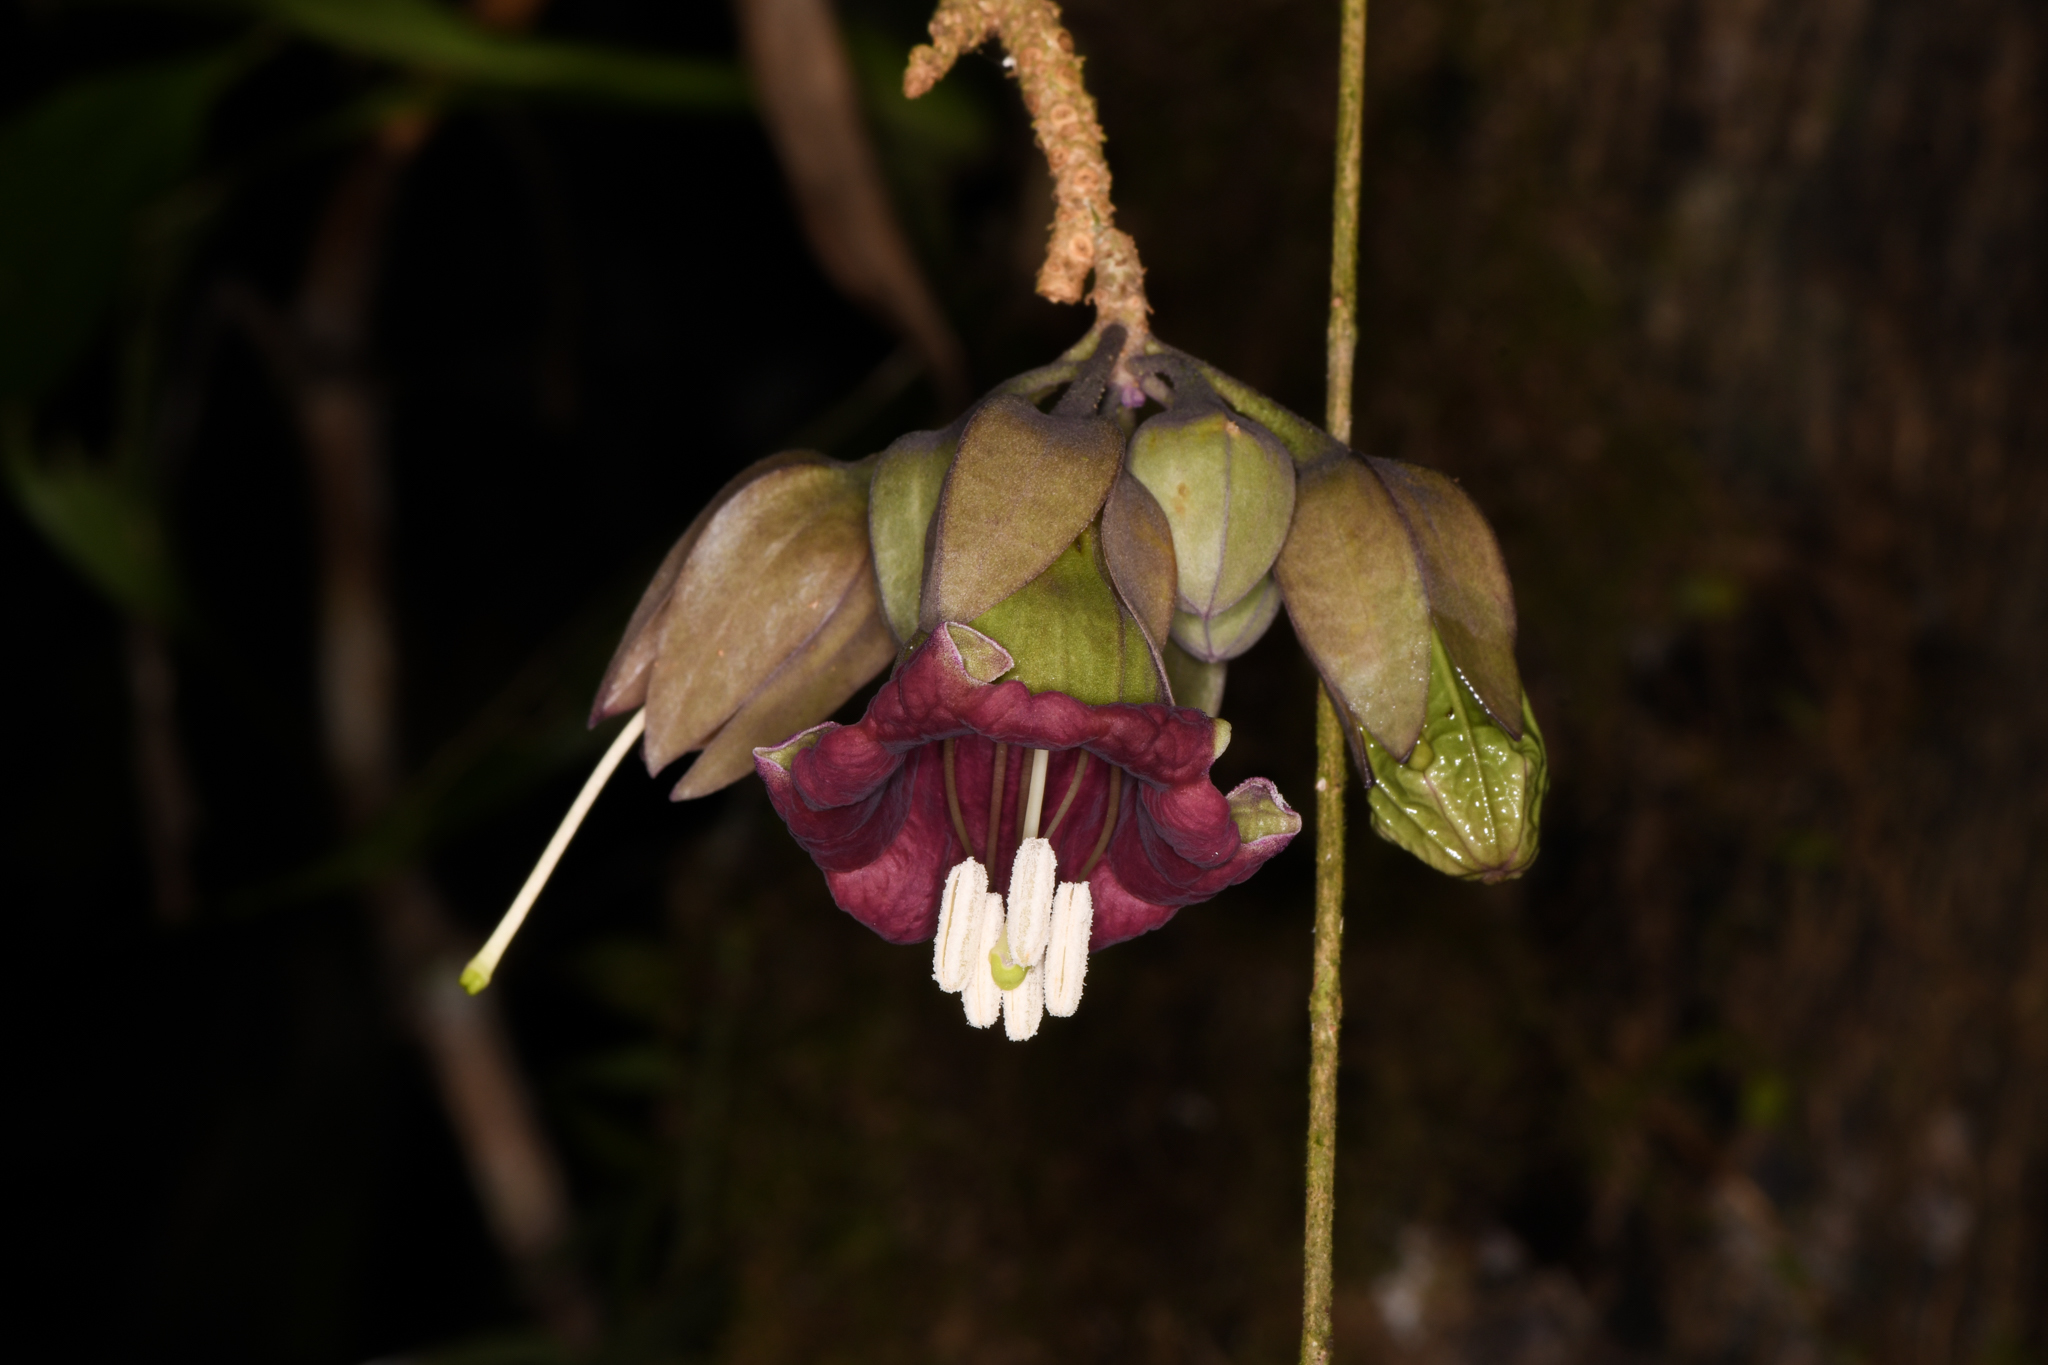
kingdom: Plantae
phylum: Tracheophyta
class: Magnoliopsida
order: Solanales
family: Solanaceae
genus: Merinthopodium
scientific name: Merinthopodium neuranthum
